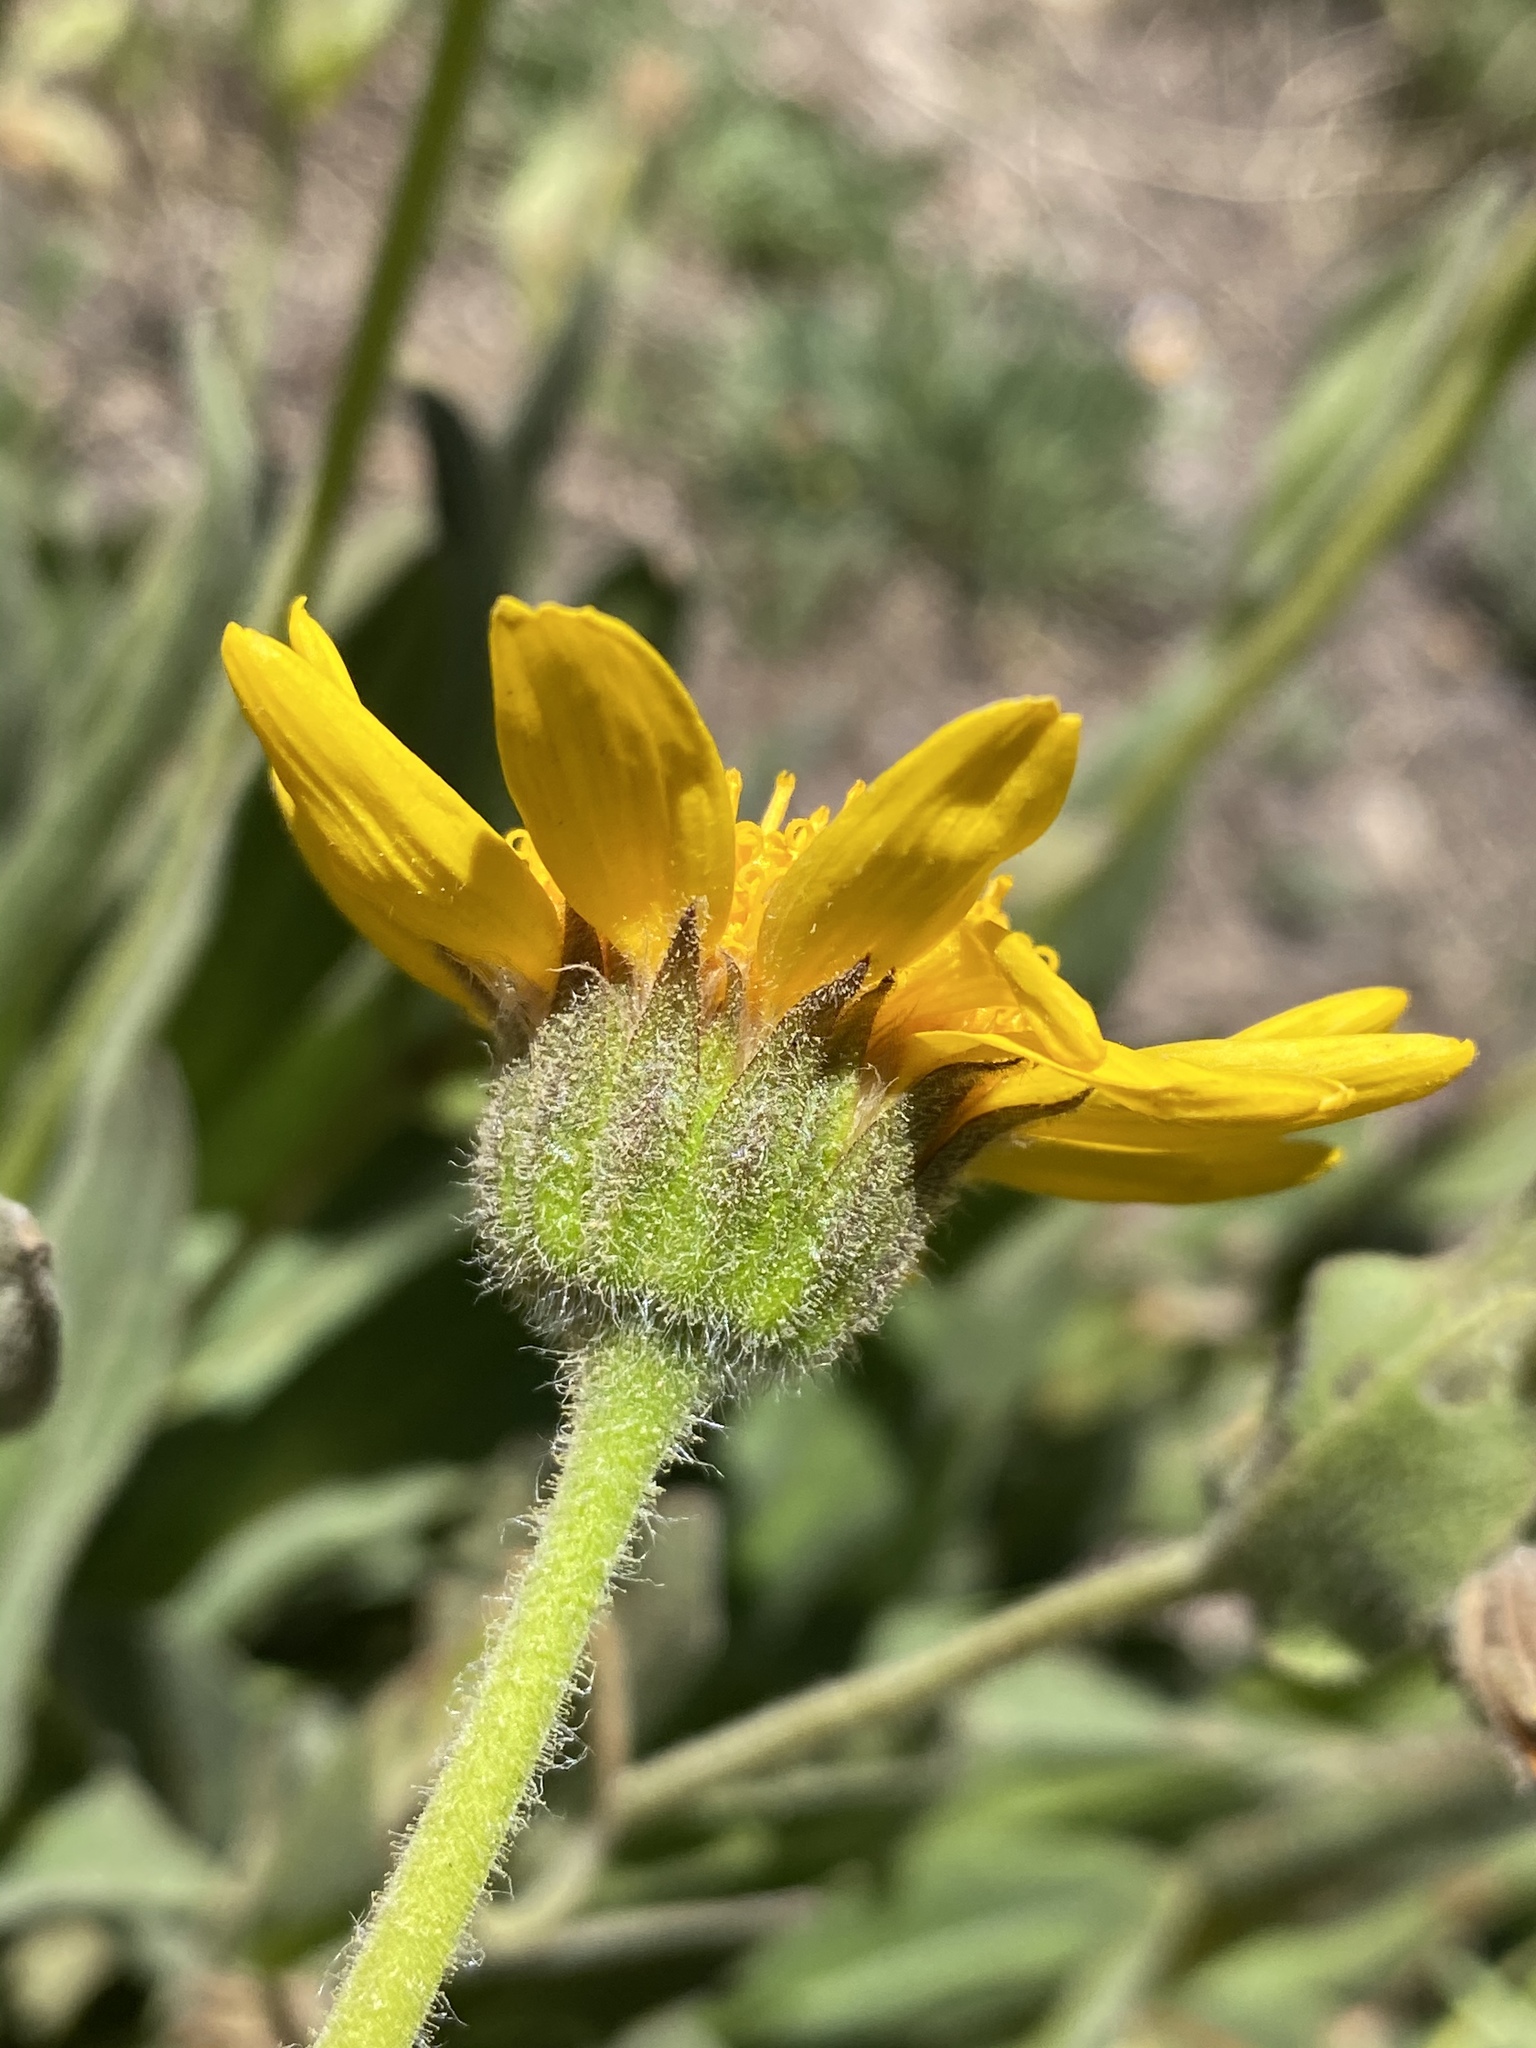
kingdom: Plantae
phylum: Tracheophyta
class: Magnoliopsida
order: Asterales
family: Asteraceae
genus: Arnica
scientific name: Arnica mollis
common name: Hairy arnica
